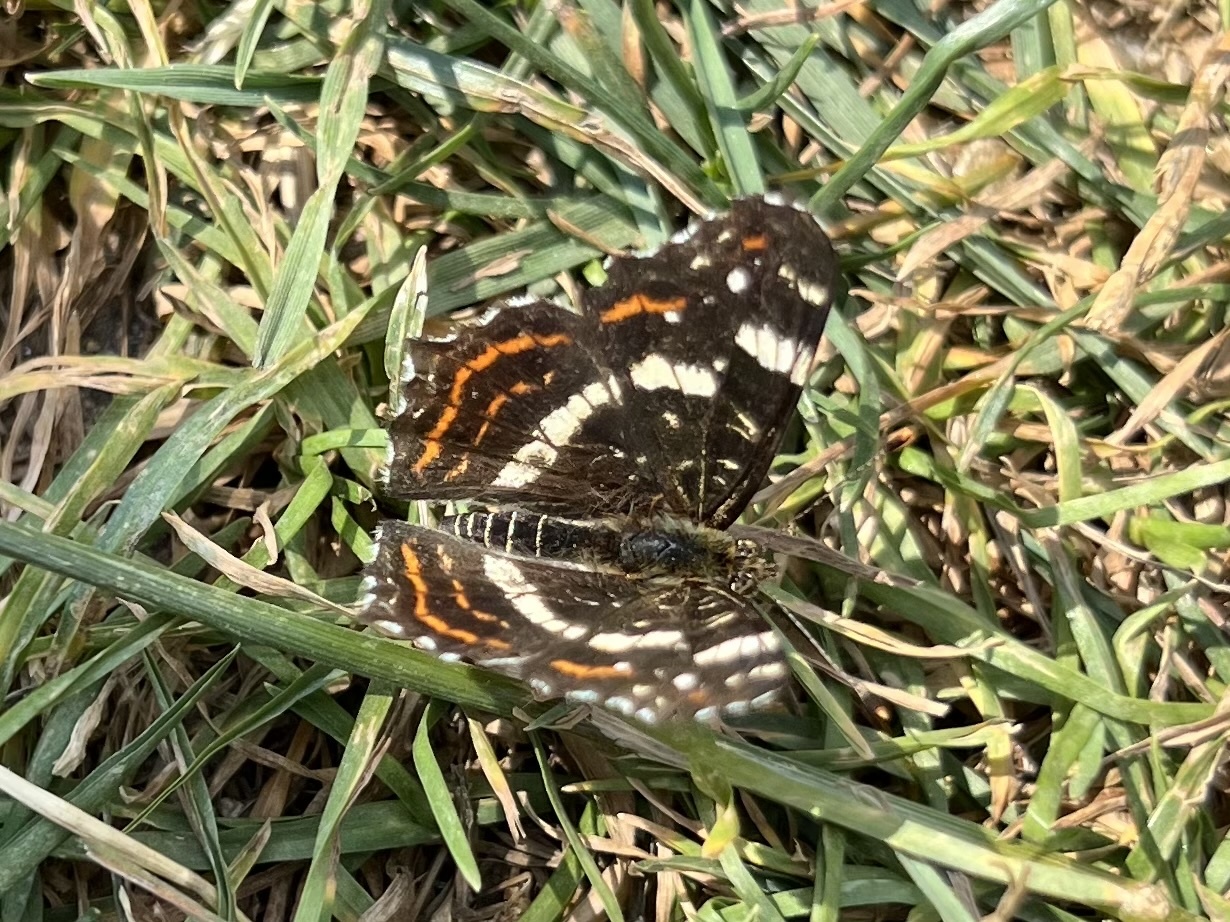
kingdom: Animalia
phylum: Arthropoda
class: Insecta
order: Lepidoptera
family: Nymphalidae
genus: Araschnia
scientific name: Araschnia levana
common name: Map butterfly
